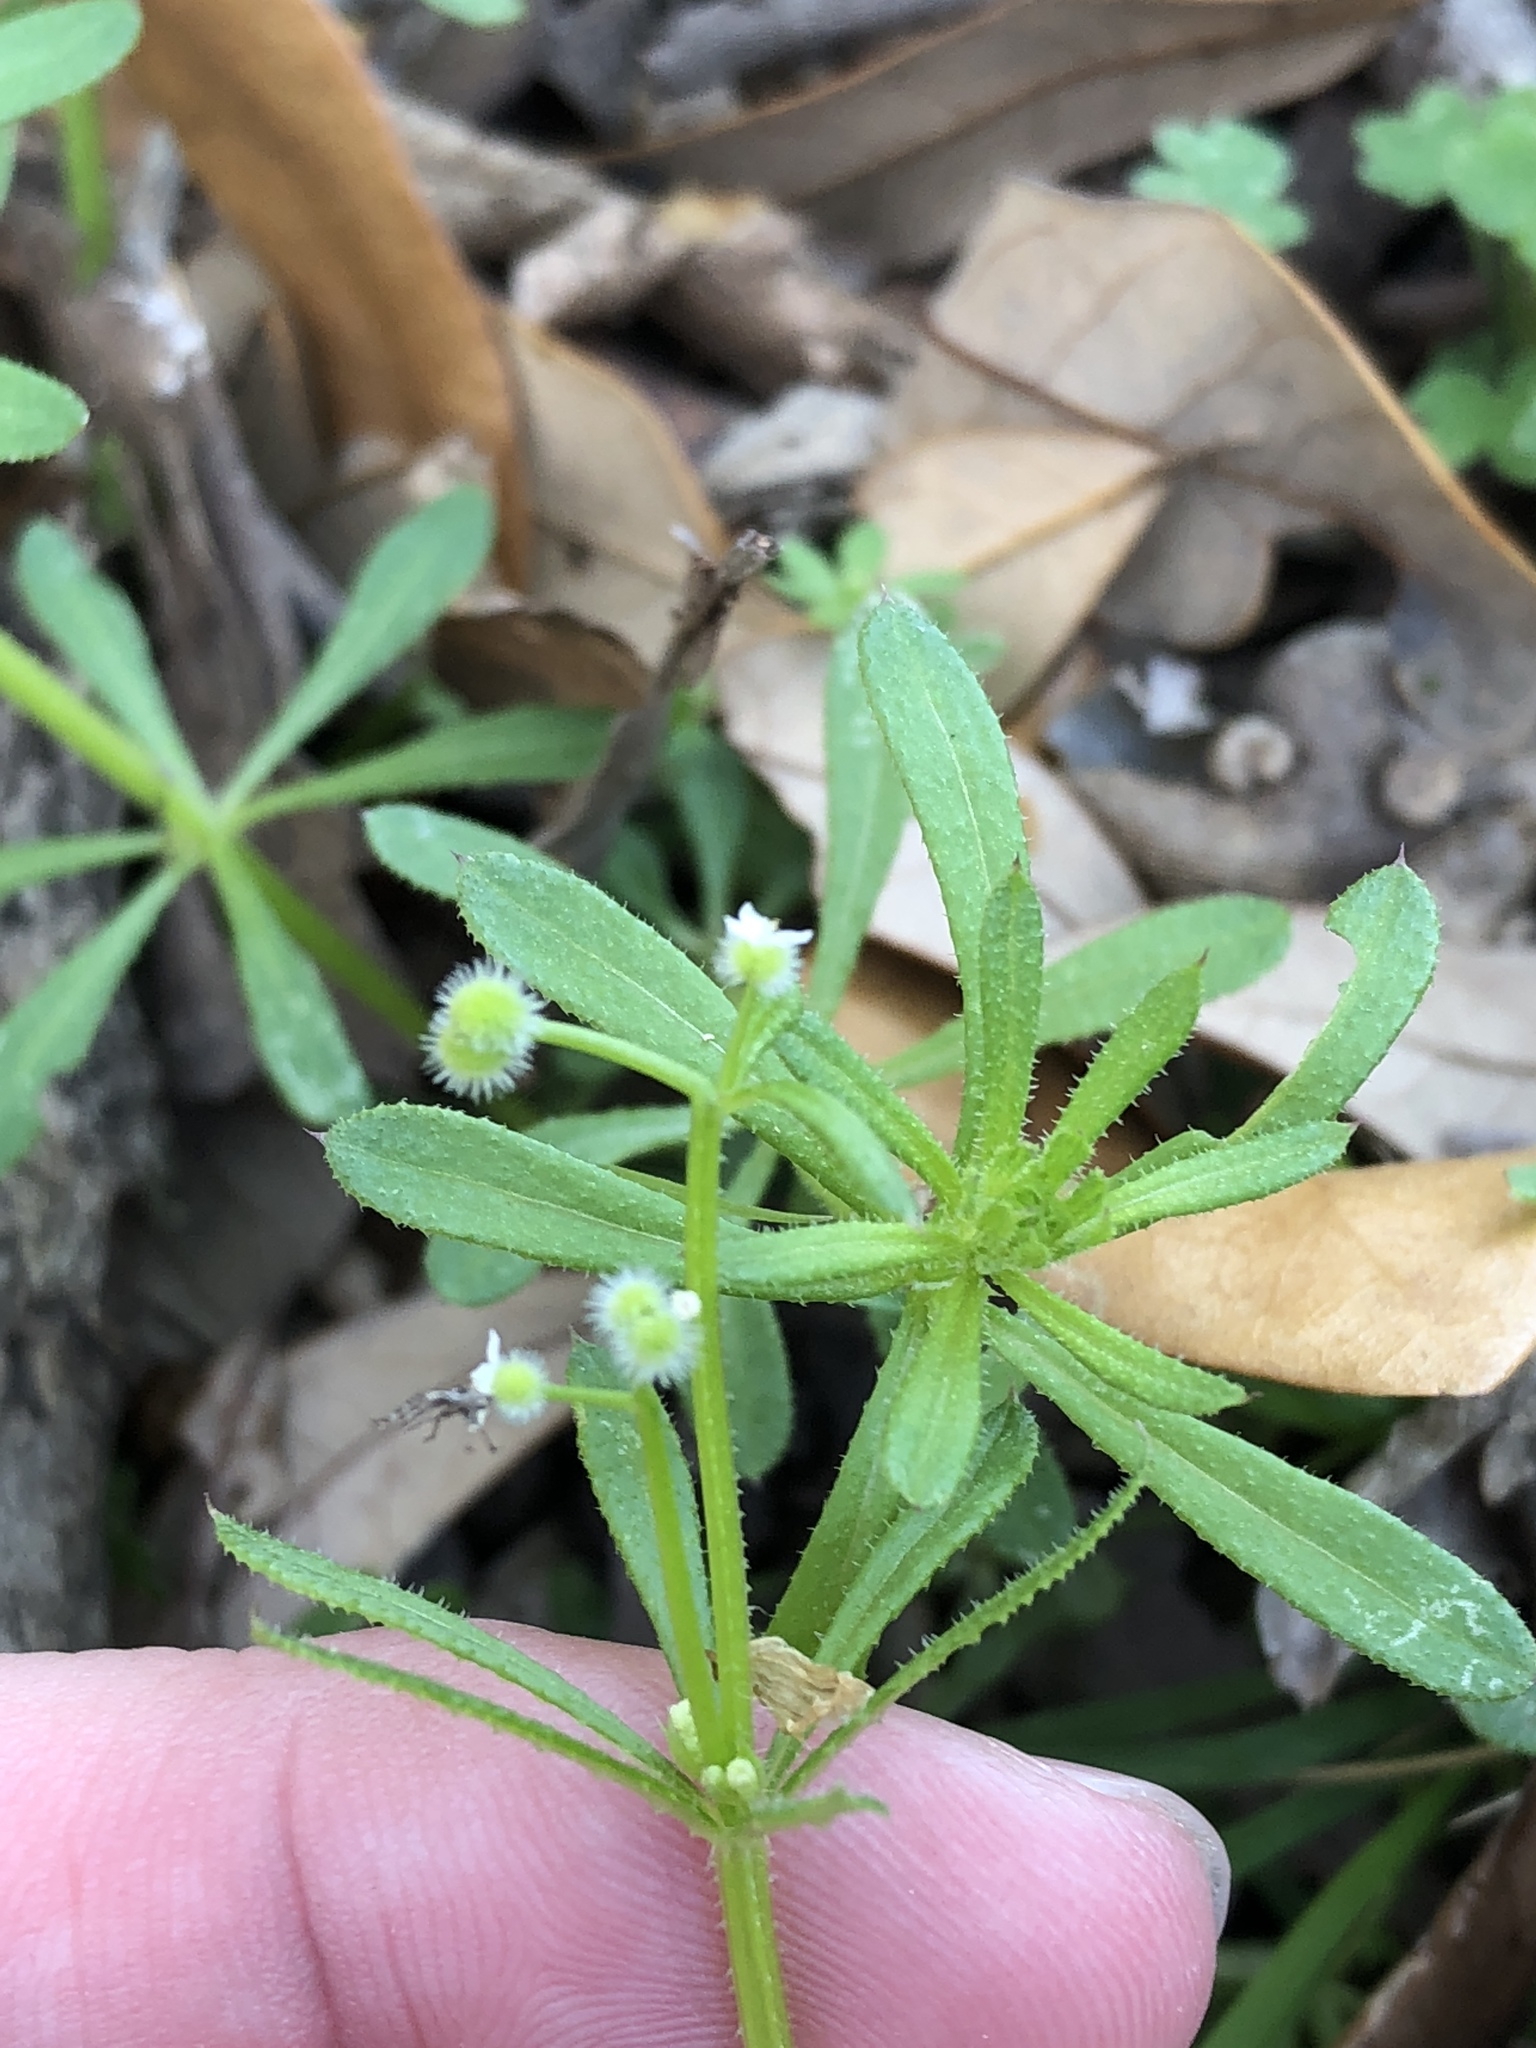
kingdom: Plantae
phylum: Tracheophyta
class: Magnoliopsida
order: Gentianales
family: Rubiaceae
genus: Galium
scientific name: Galium aparine
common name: Cleavers
